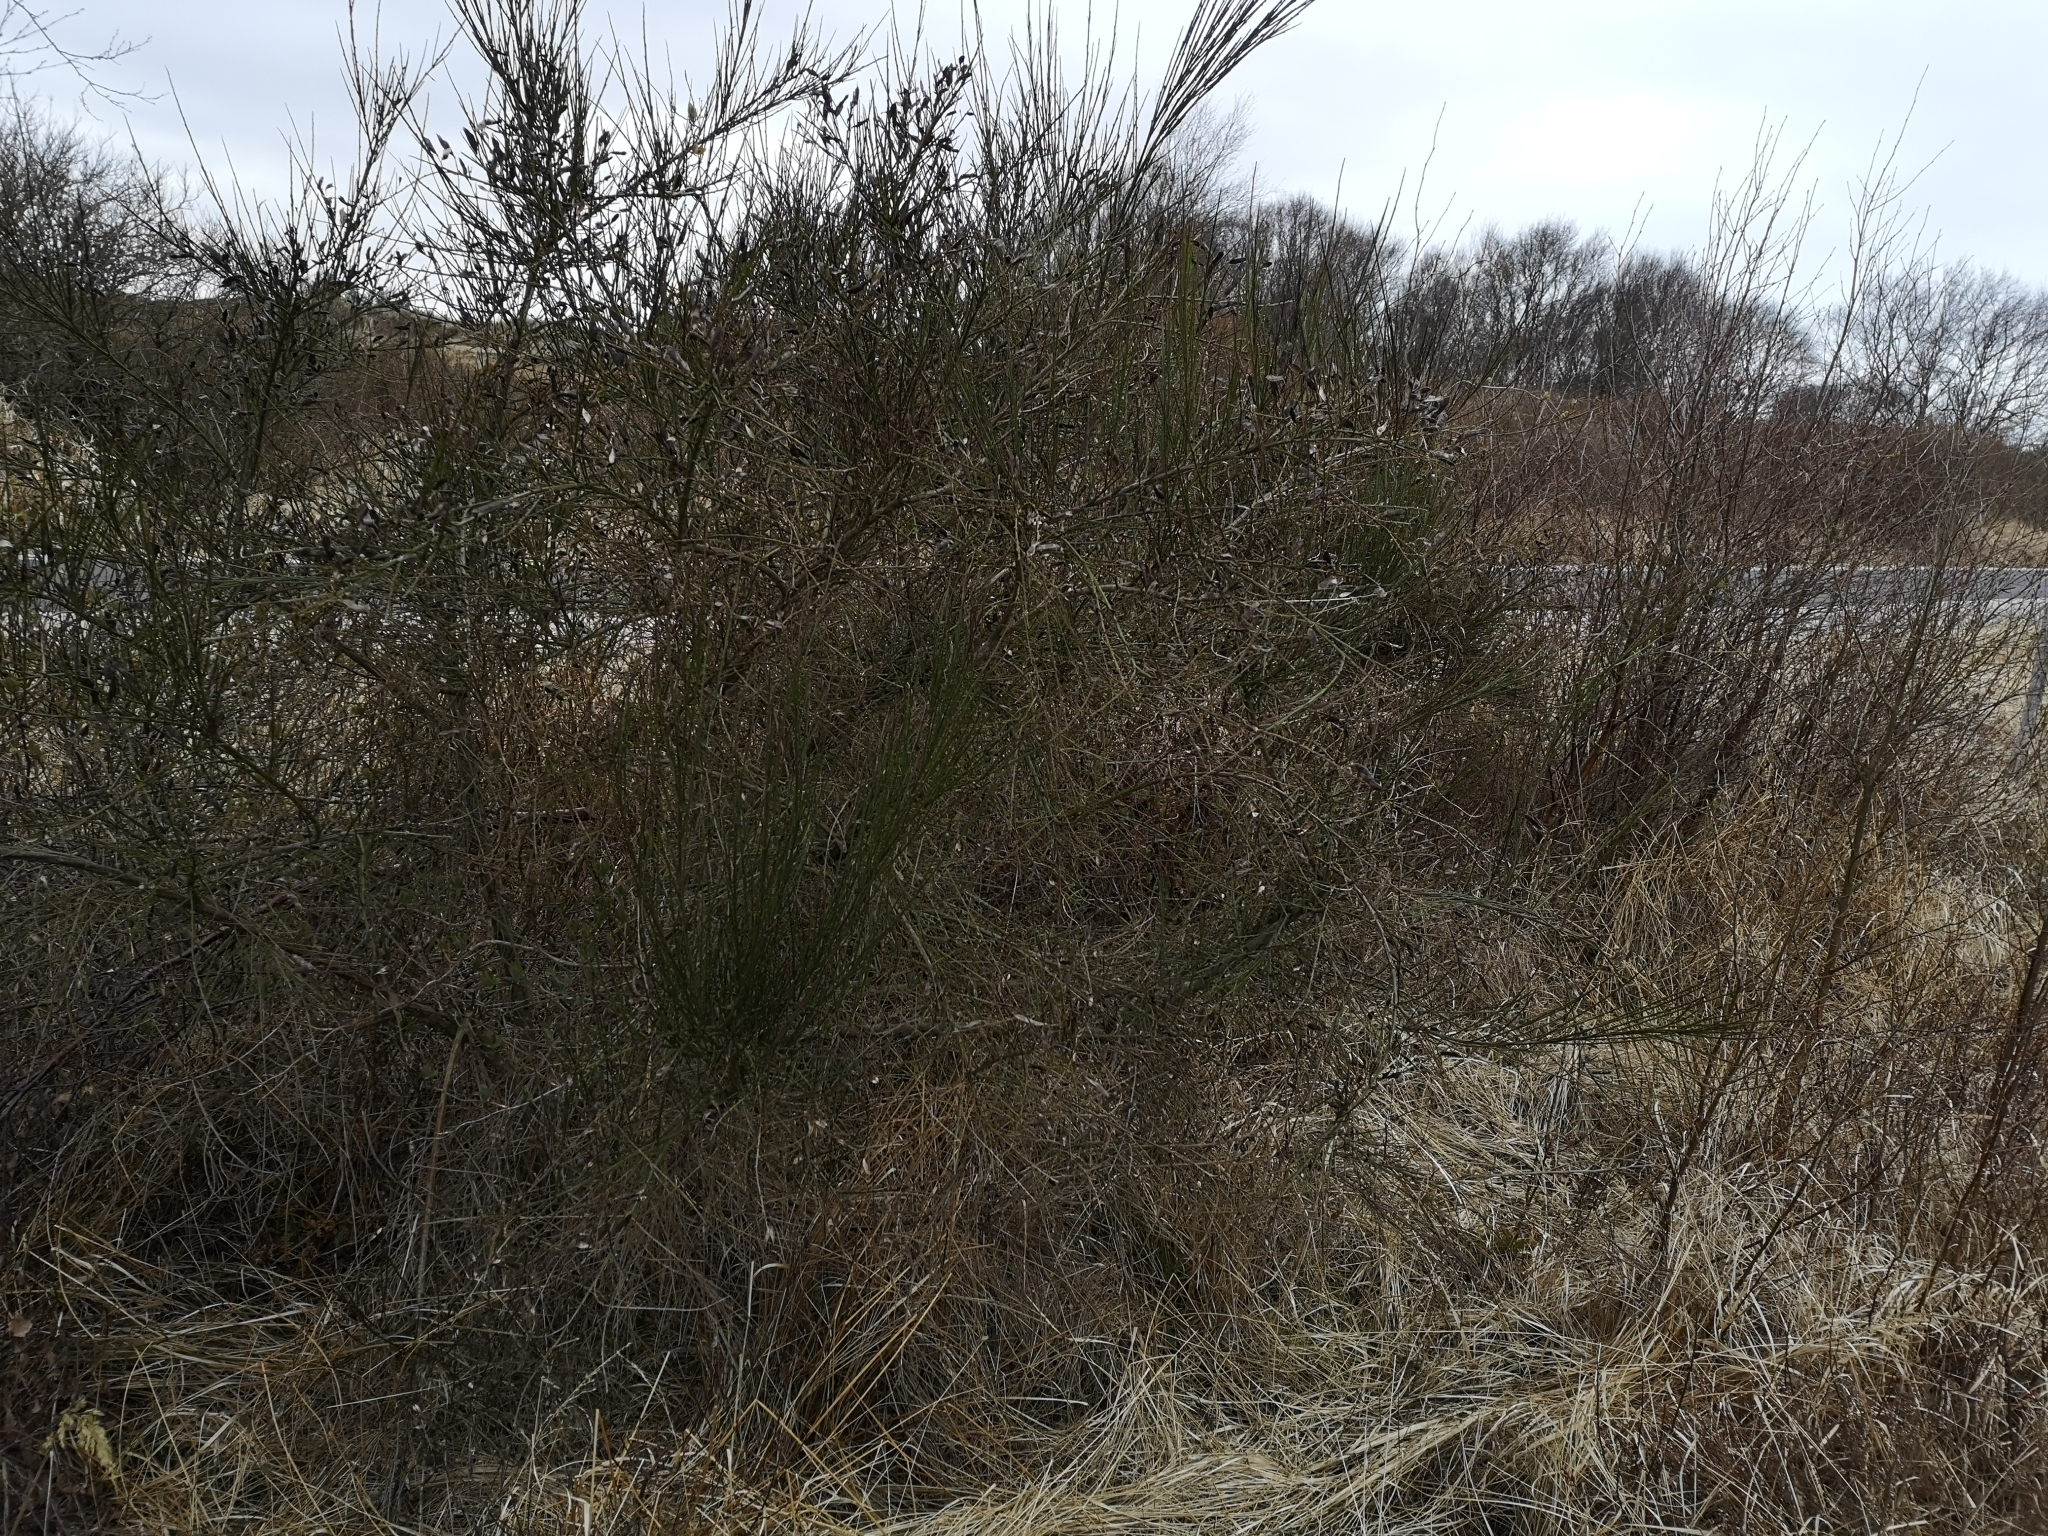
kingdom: Plantae
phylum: Tracheophyta
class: Magnoliopsida
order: Fabales
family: Fabaceae
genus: Cytisus
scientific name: Cytisus scoparius
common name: Scotch broom
